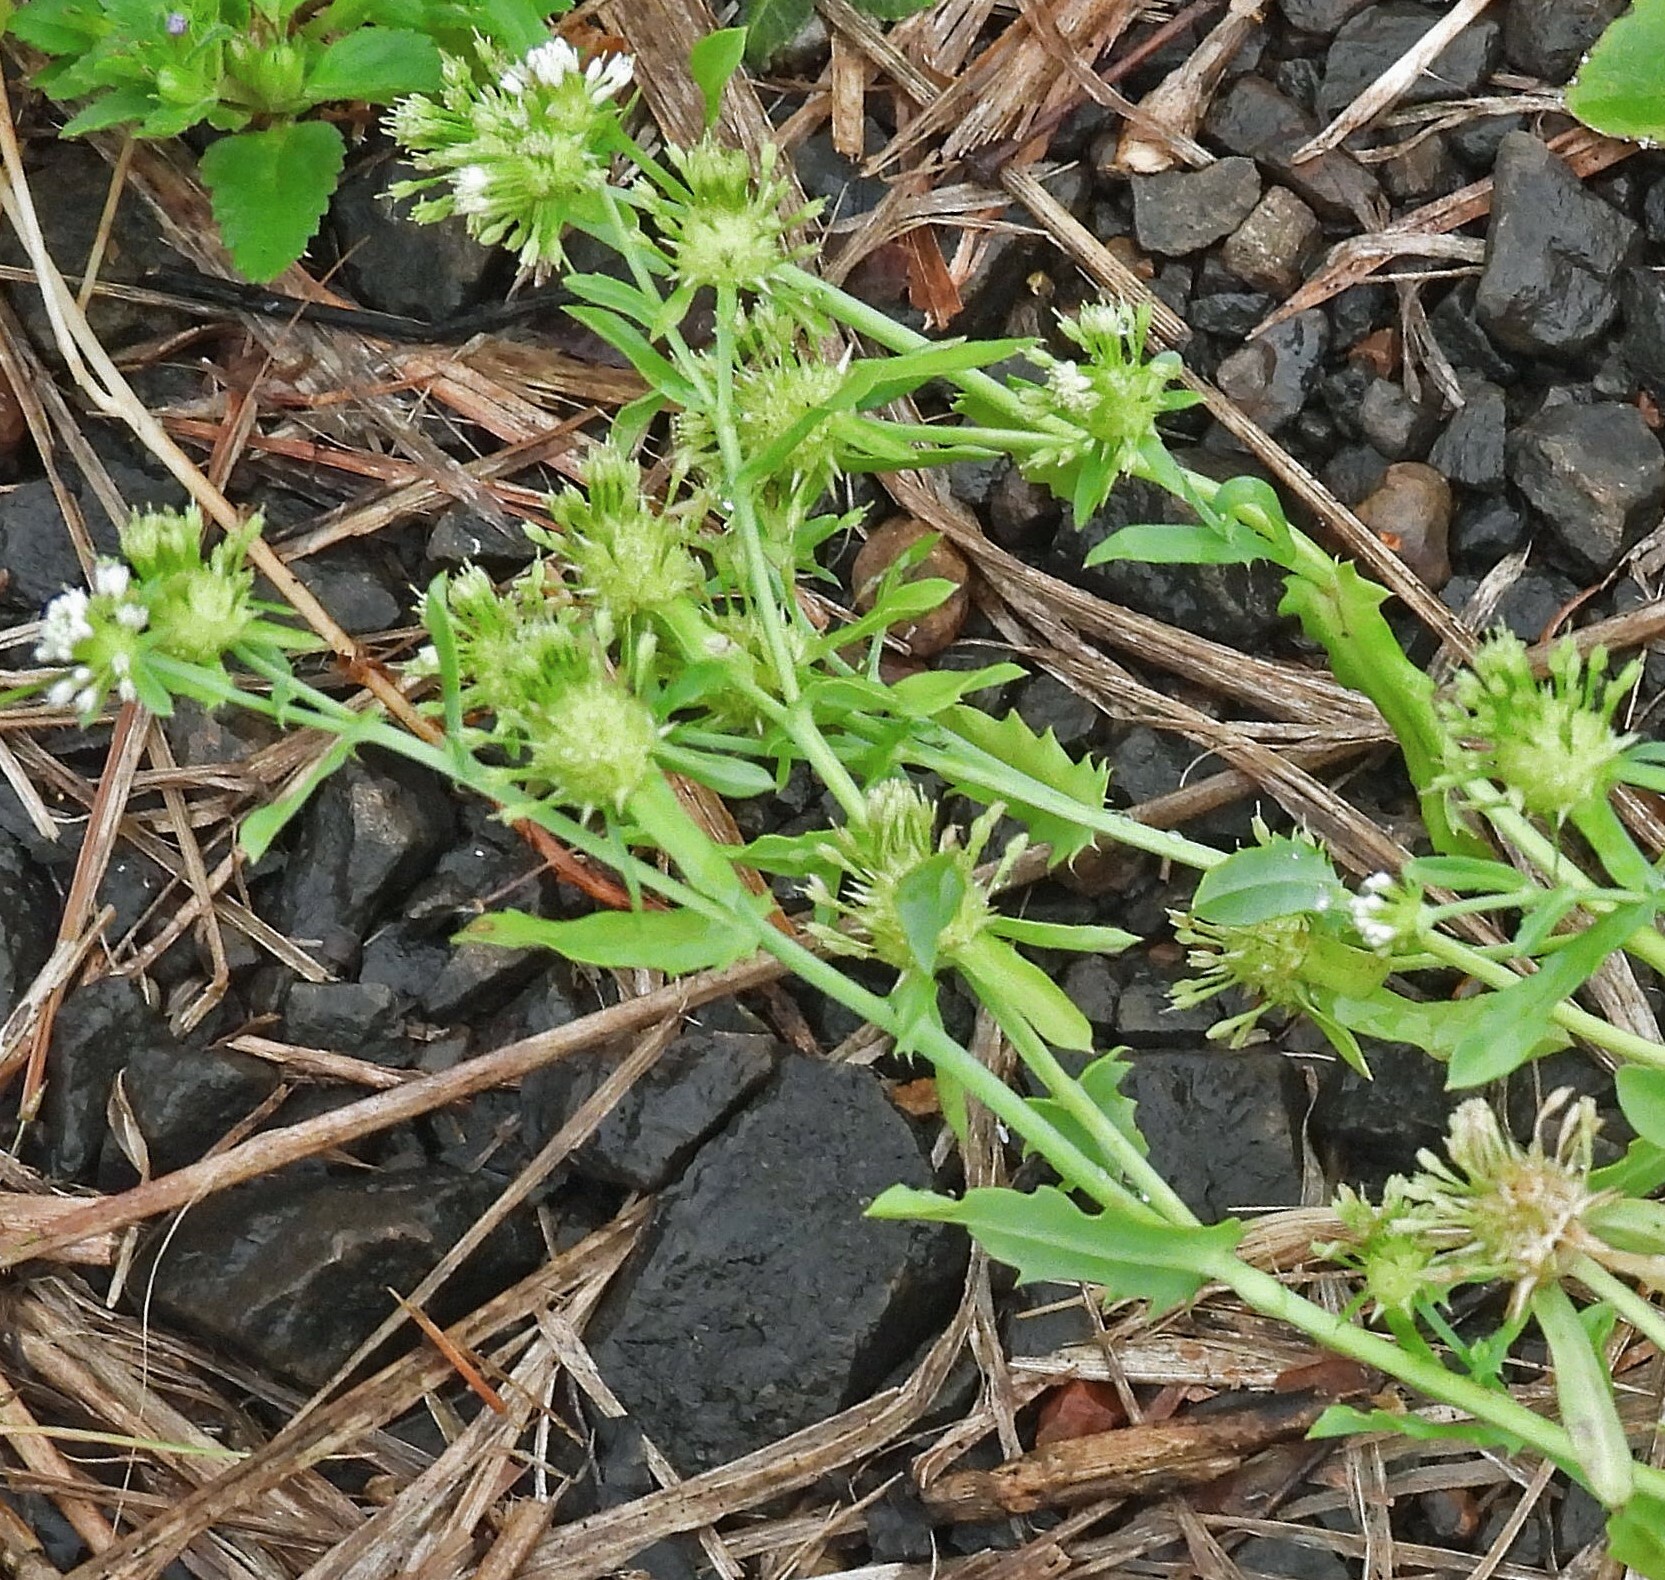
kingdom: Plantae
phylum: Tracheophyta
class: Magnoliopsida
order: Asterales
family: Calyceraceae
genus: Acicarpha
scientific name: Acicarpha tribuloides
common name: Madam gorgon
